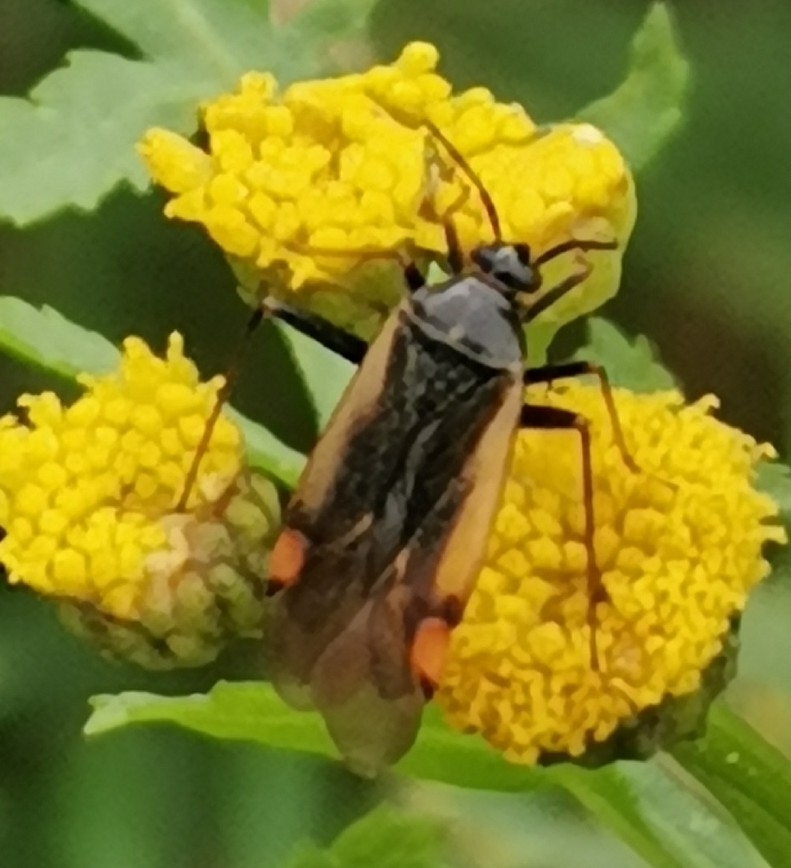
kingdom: Animalia
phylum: Arthropoda
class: Insecta
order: Hemiptera
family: Miridae
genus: Adelphocoris
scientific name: Adelphocoris seticornis
